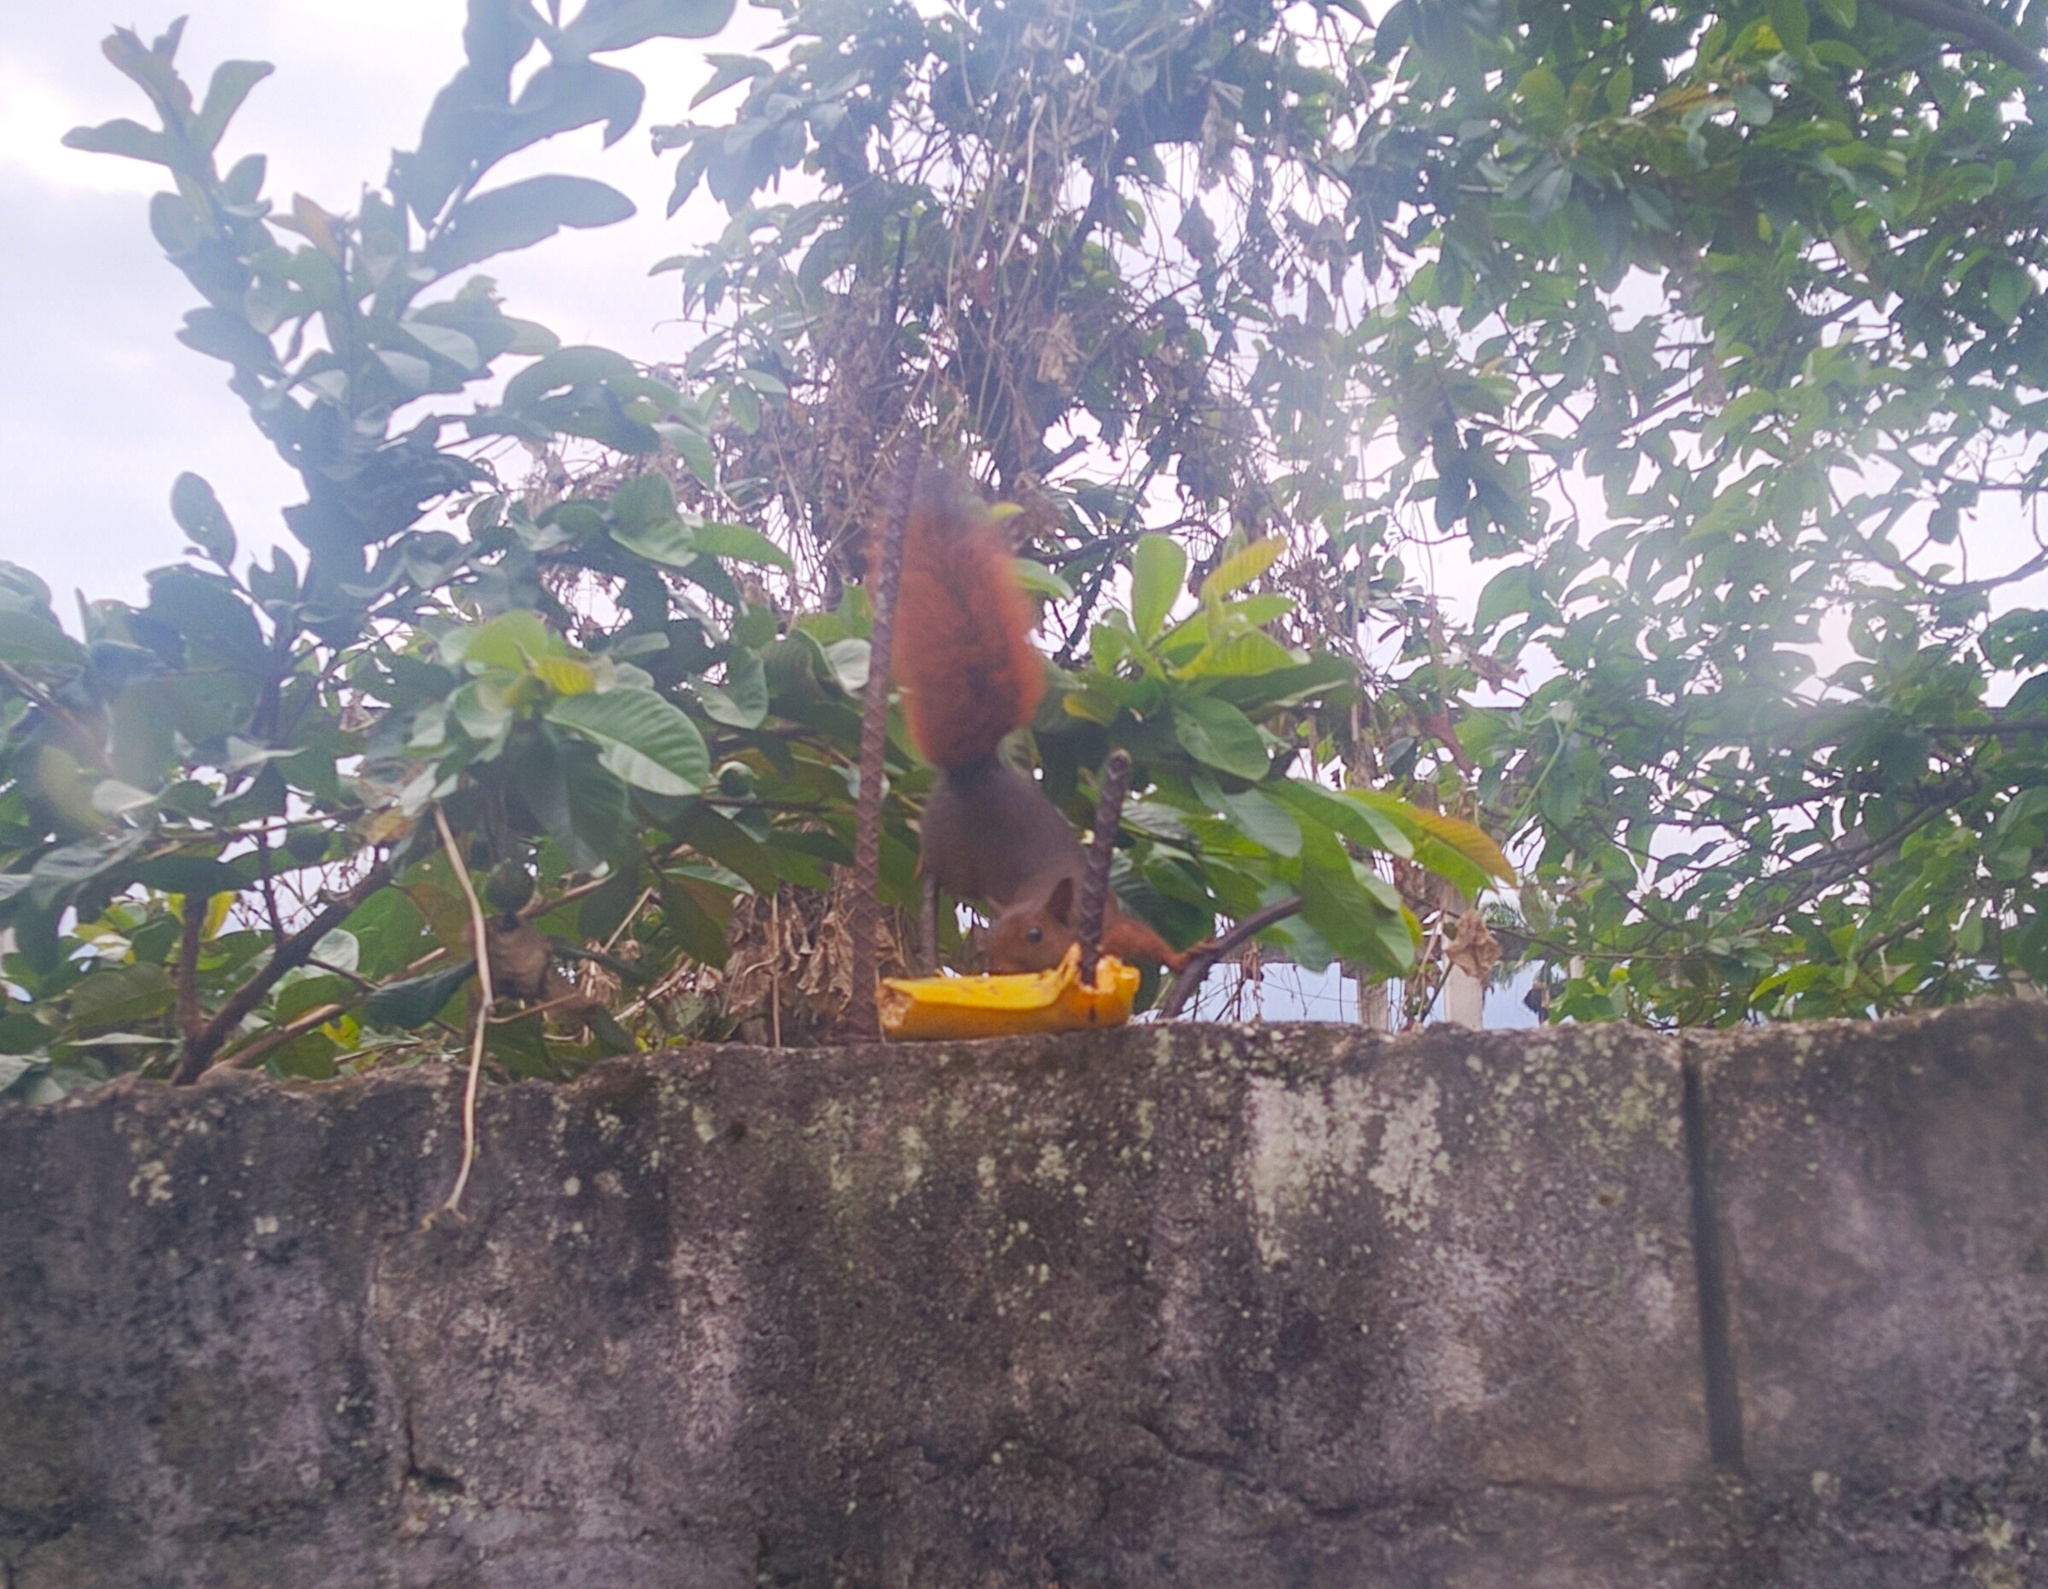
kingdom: Animalia
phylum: Chordata
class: Mammalia
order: Rodentia
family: Sciuridae
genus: Sciurus
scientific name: Sciurus granatensis
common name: Red-tailed squirrel
